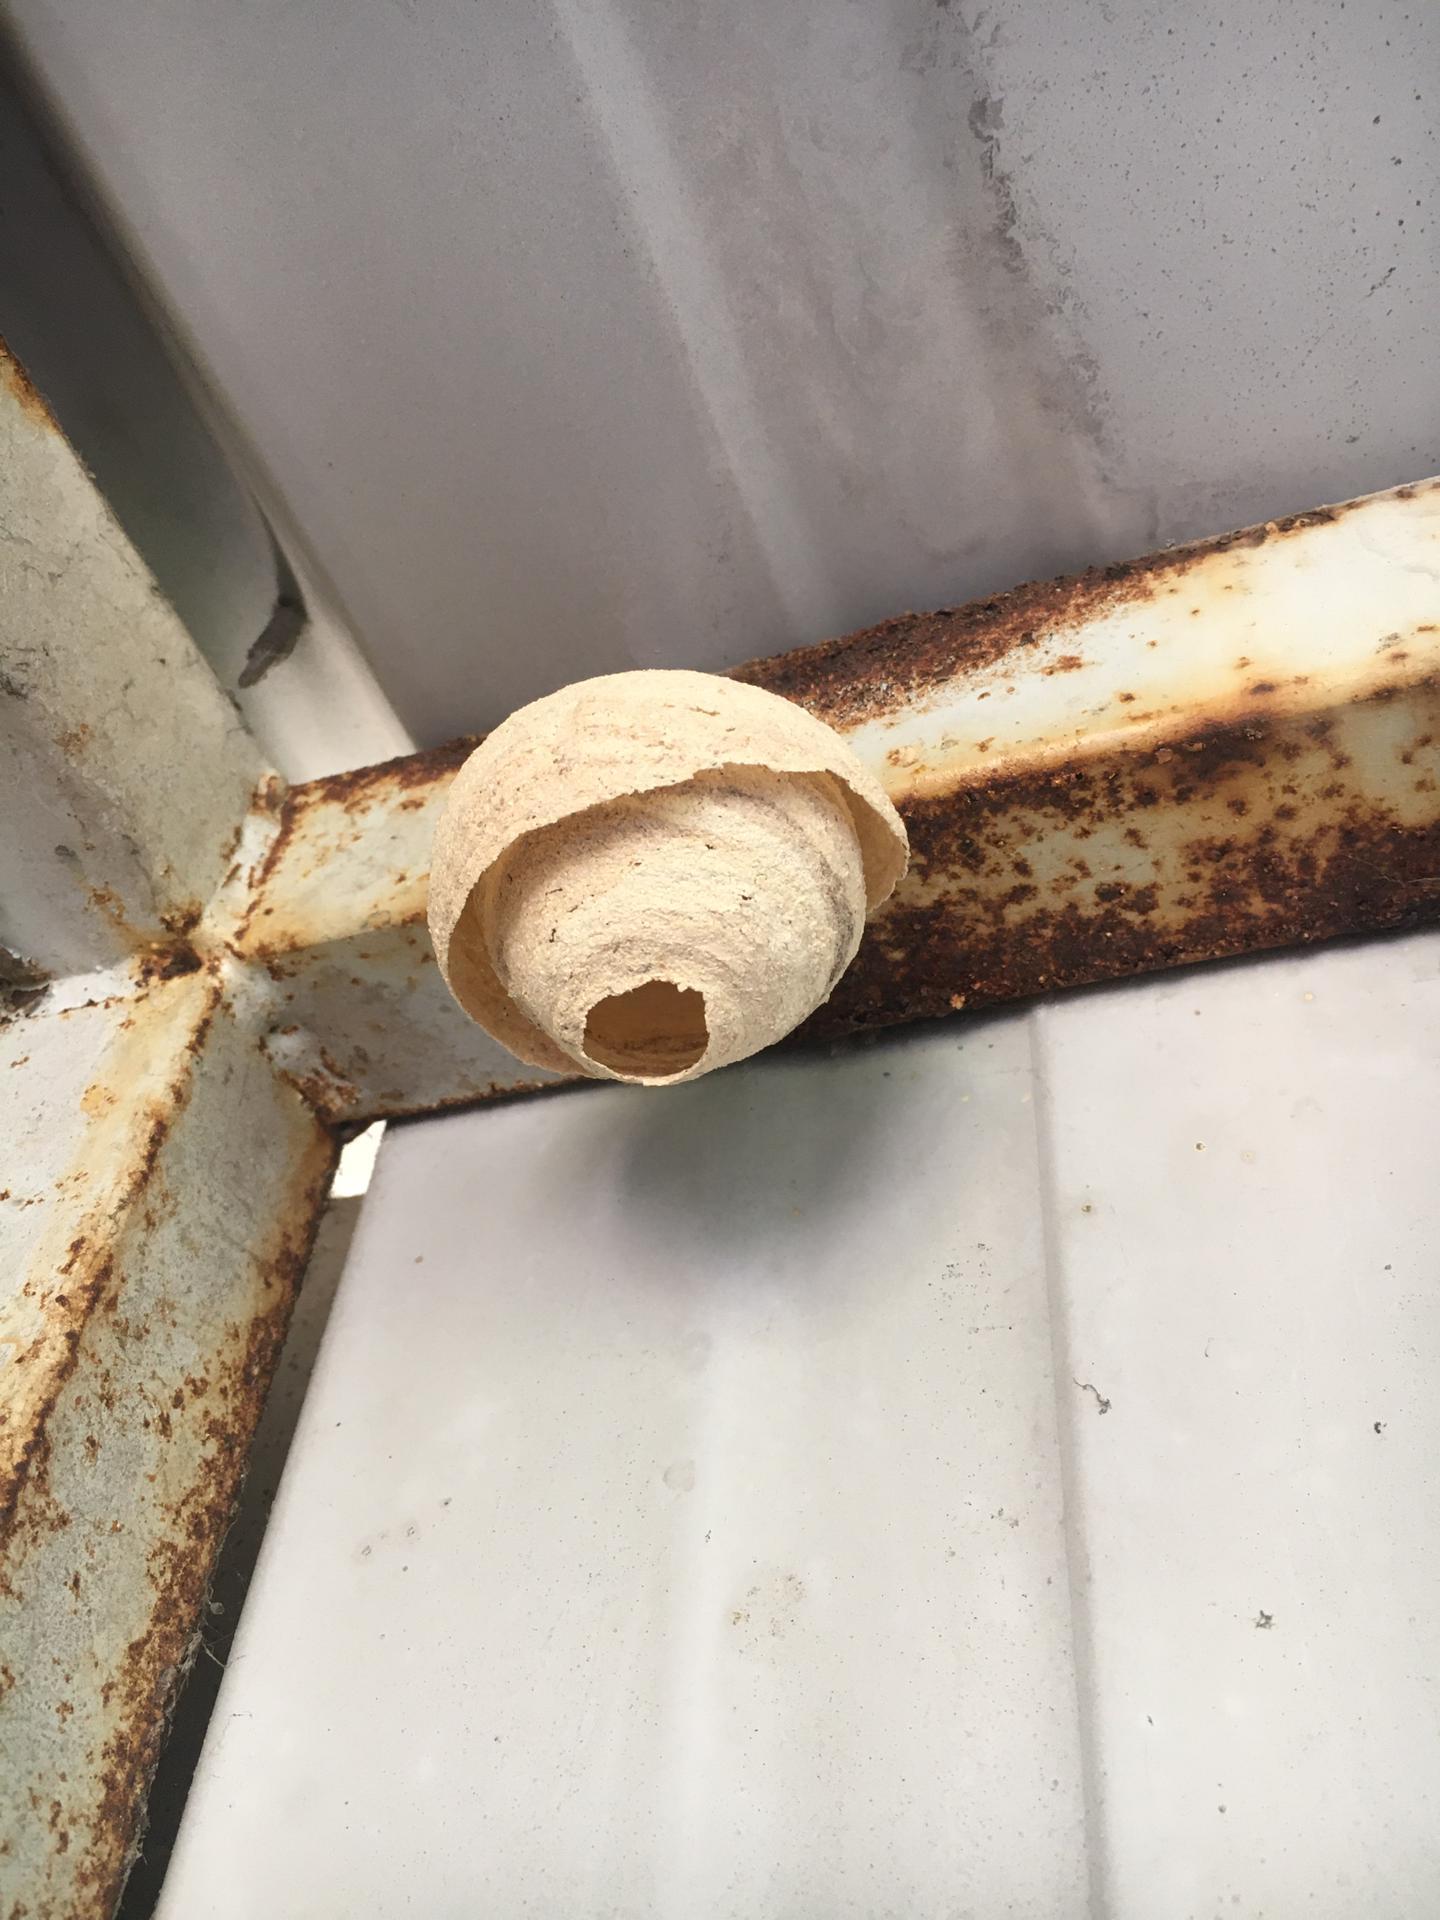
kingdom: Animalia
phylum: Arthropoda
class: Insecta
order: Hymenoptera
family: Vespidae
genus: Vespa
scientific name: Vespa velutina
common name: Asian hornet
